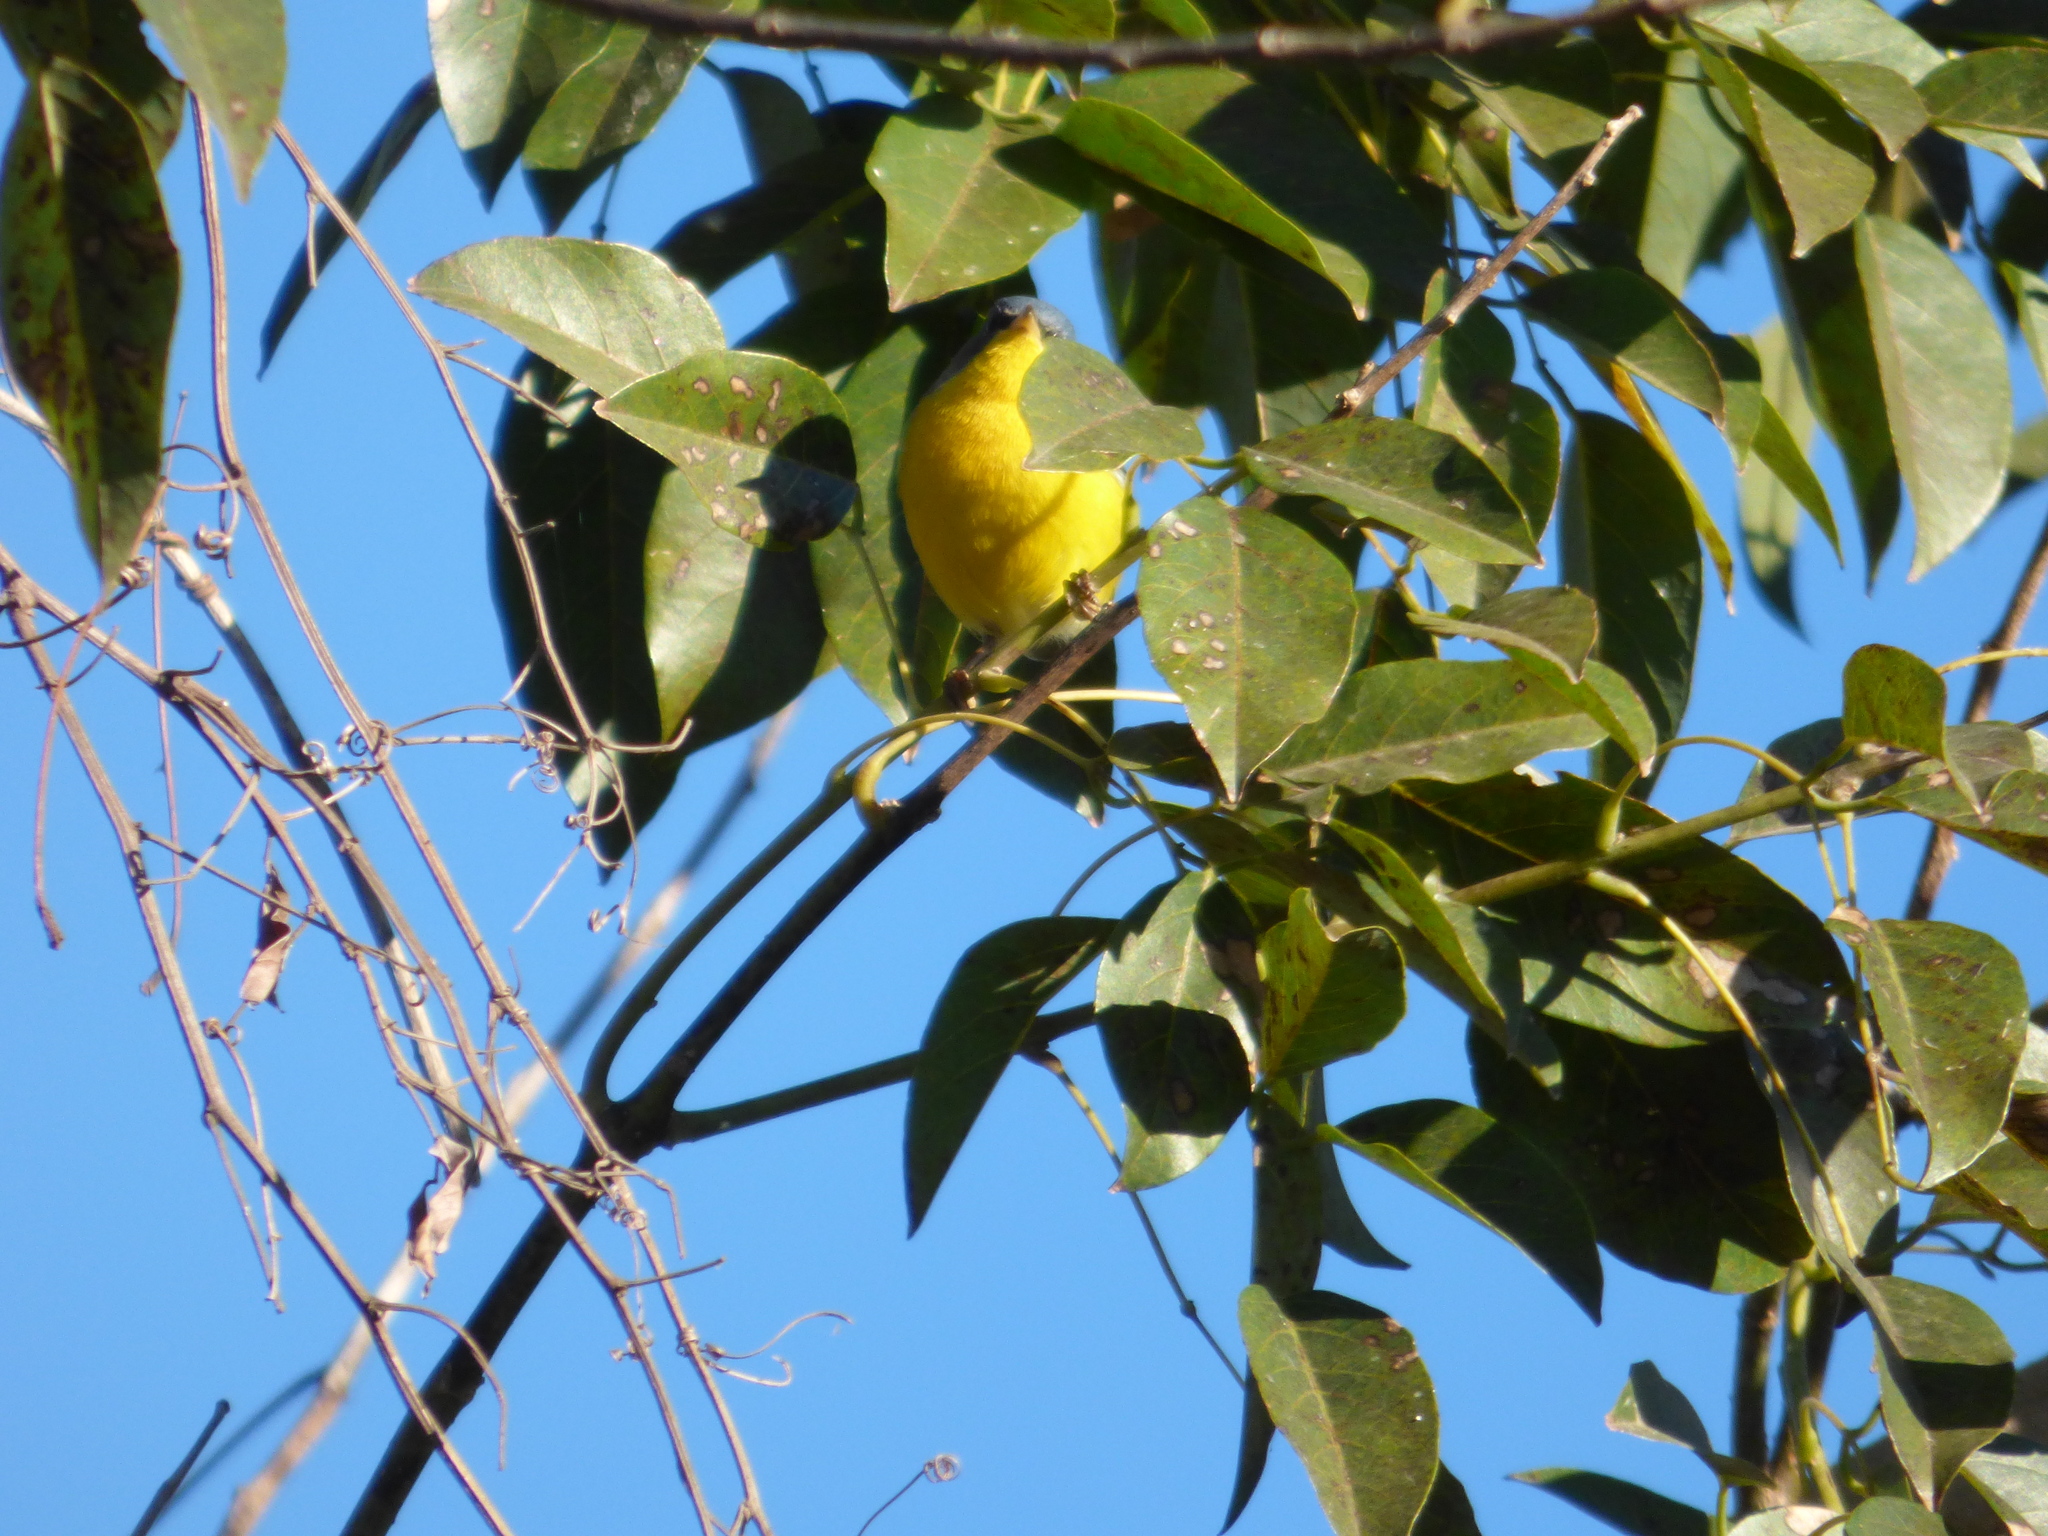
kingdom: Animalia
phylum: Chordata
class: Aves
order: Passeriformes
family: Parulidae
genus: Setophaga
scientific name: Setophaga pitiayumi
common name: Tropical parula
